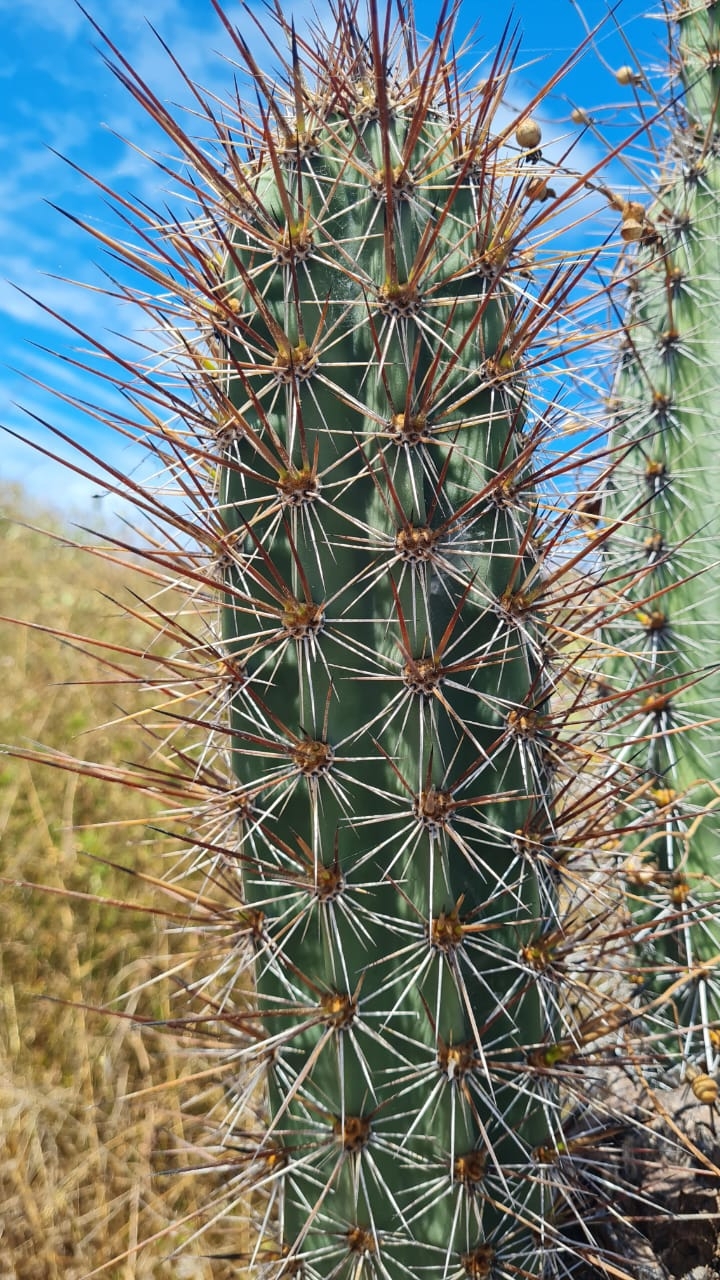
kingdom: Plantae
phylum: Tracheophyta
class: Magnoliopsida
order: Caryophyllales
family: Cactaceae
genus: Armatocereus
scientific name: Armatocereus cartwrightianus
